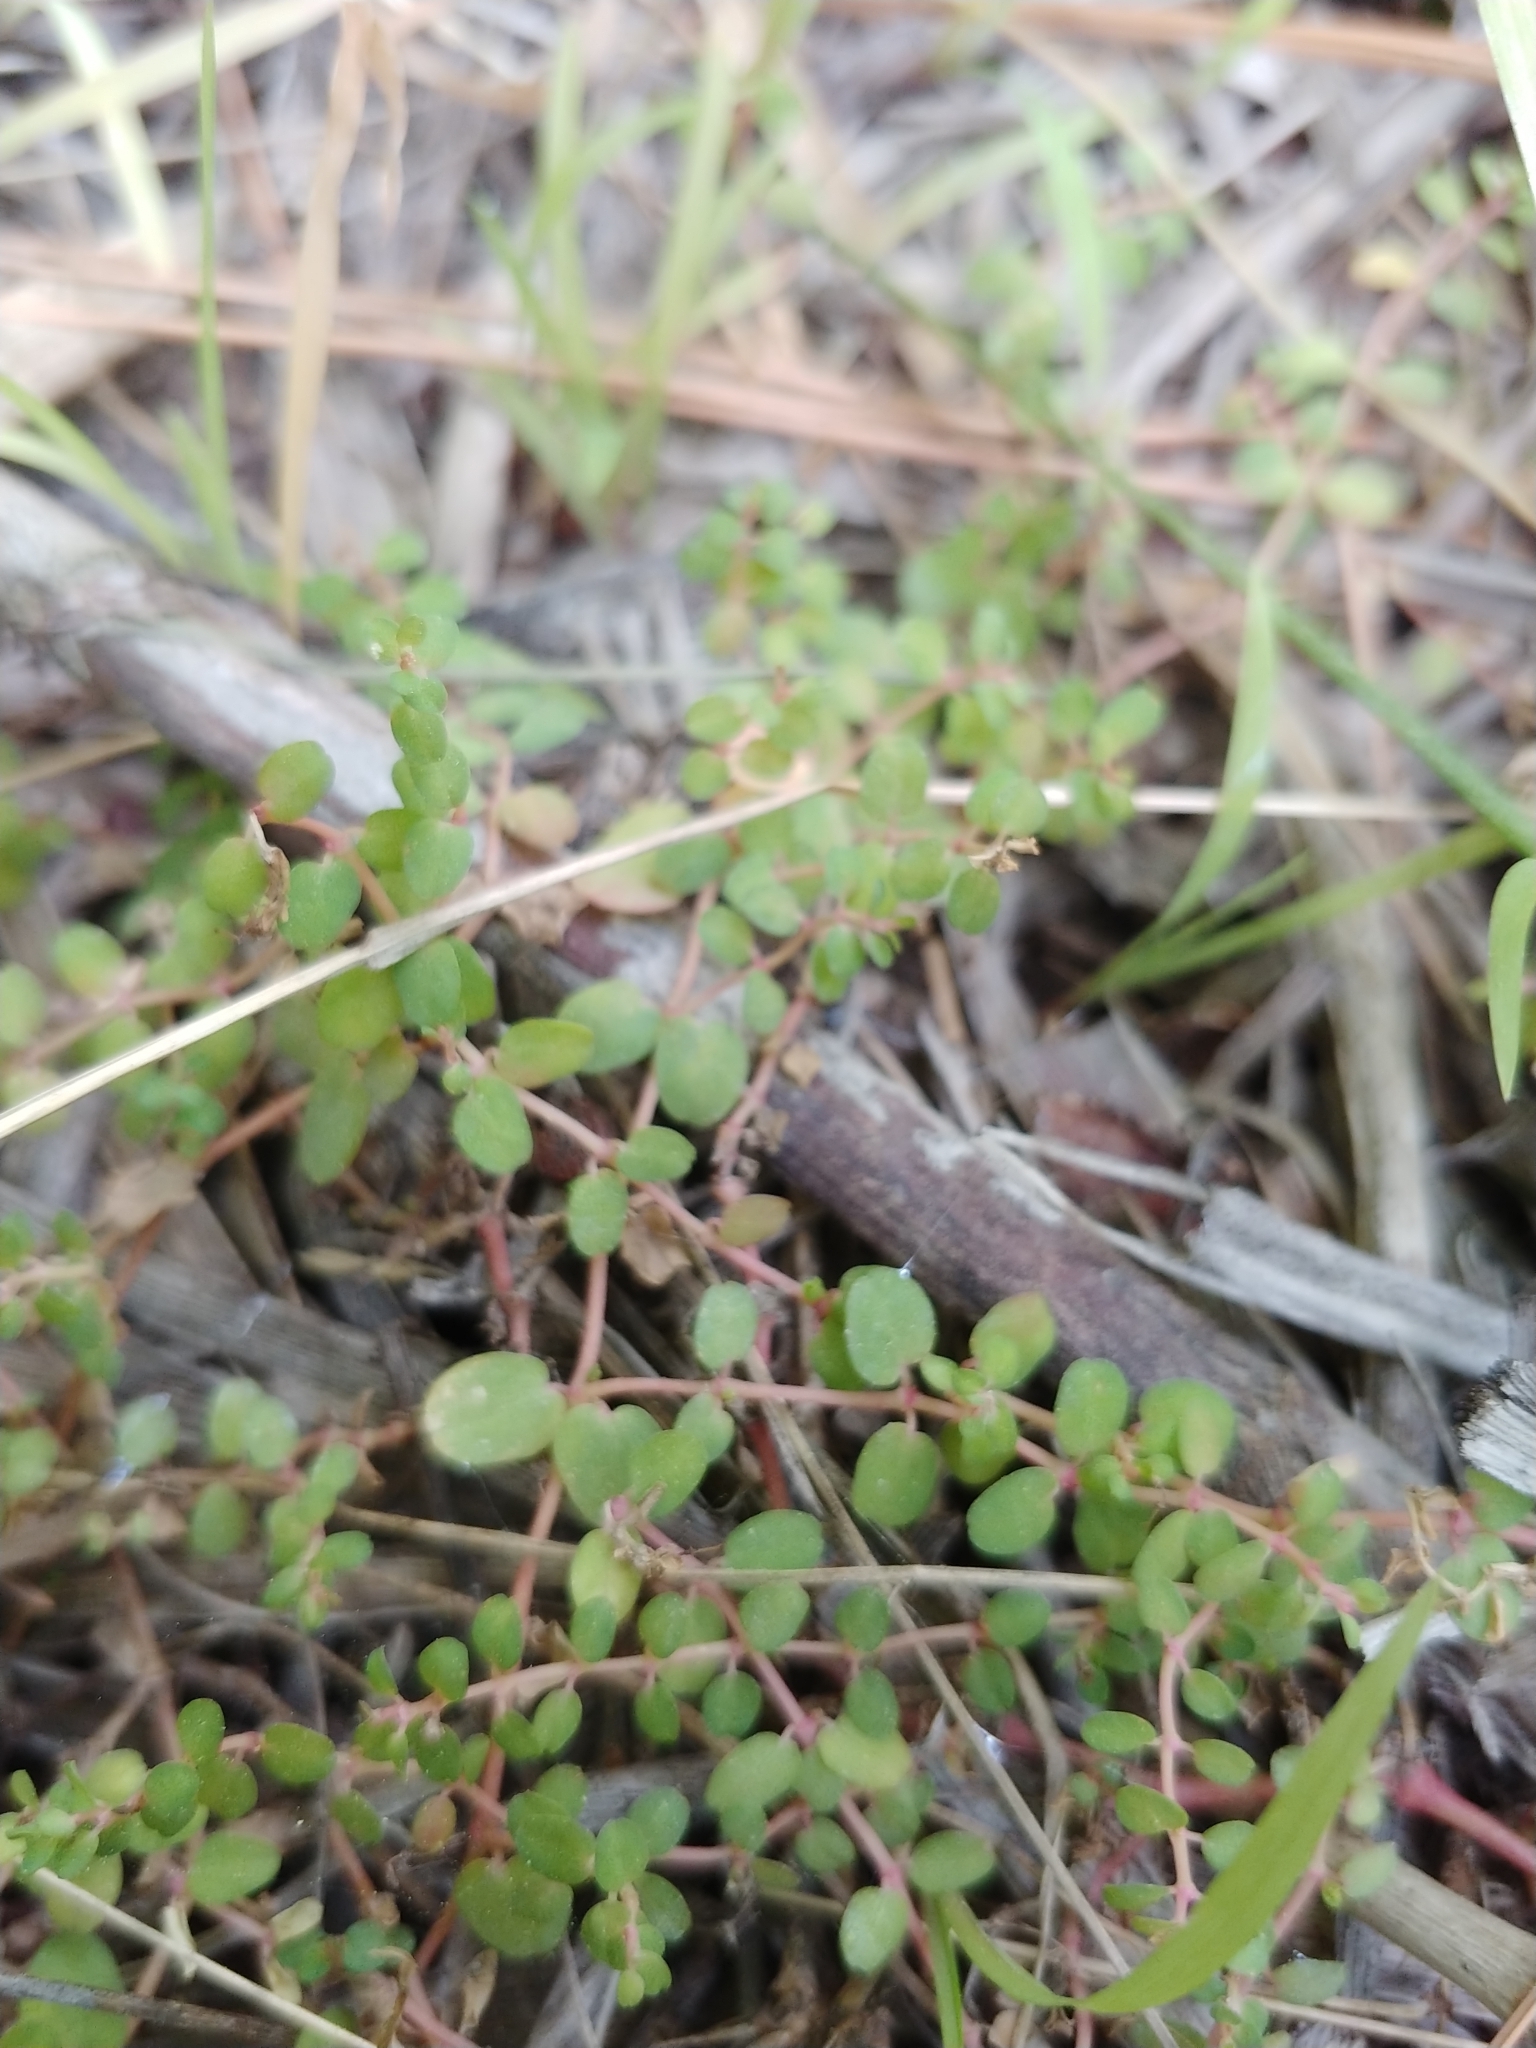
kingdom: Plantae
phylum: Tracheophyta
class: Magnoliopsida
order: Malpighiales
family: Euphorbiaceae
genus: Euphorbia
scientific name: Euphorbia serpens
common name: Matted sandmat
